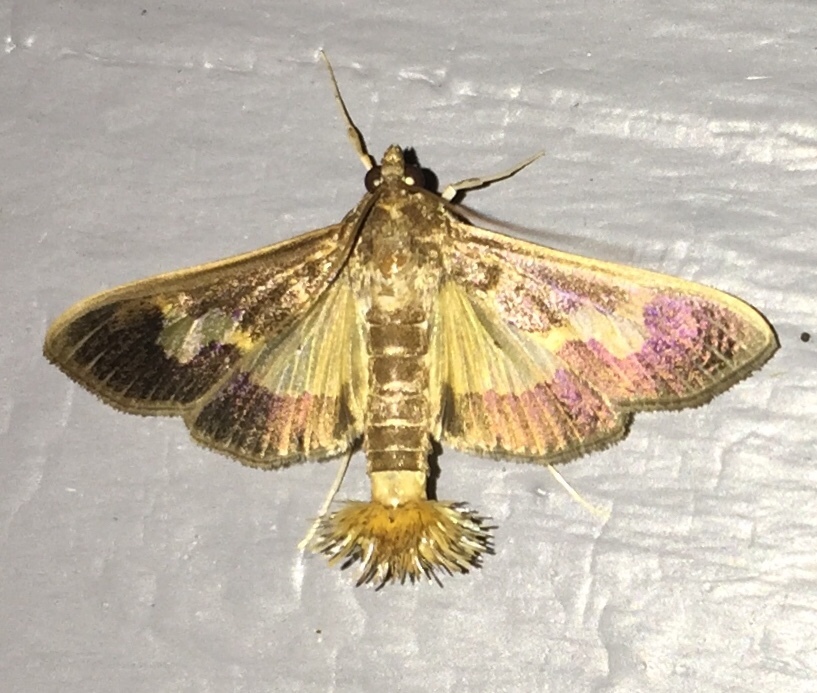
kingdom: Animalia
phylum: Arthropoda
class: Insecta
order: Lepidoptera
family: Crambidae
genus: Cryptographis
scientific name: Cryptographis nitidalis
